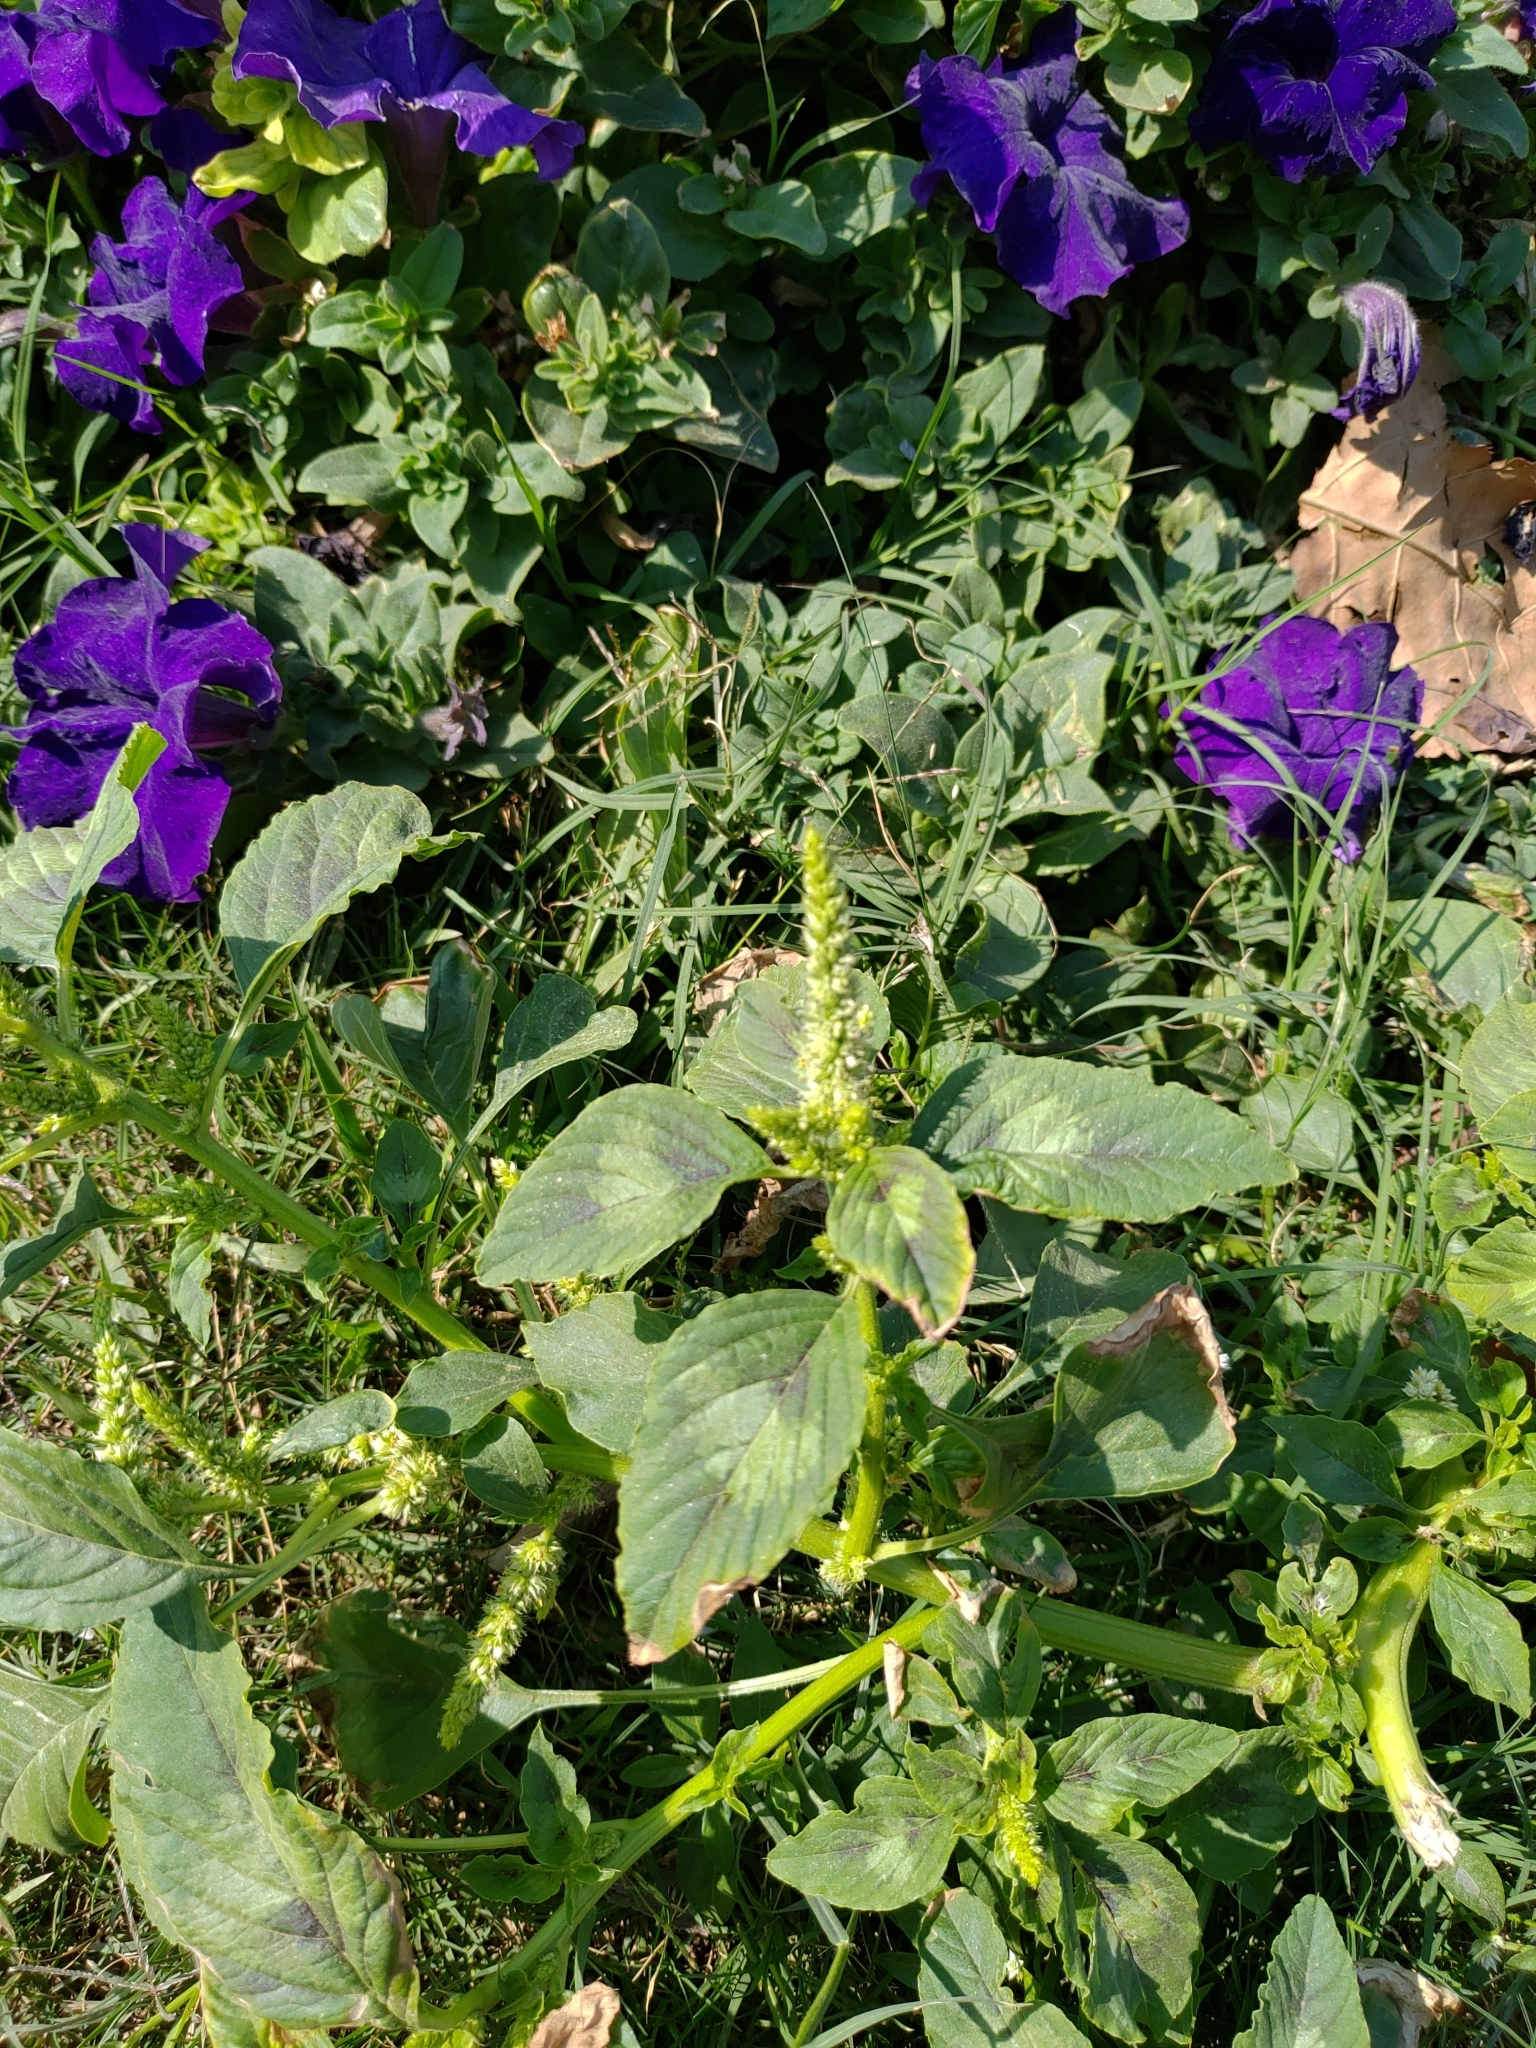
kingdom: Plantae
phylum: Tracheophyta
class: Magnoliopsida
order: Caryophyllales
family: Amaranthaceae
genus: Amaranthus
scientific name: Amaranthus retroflexus
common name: Redroot amaranth
